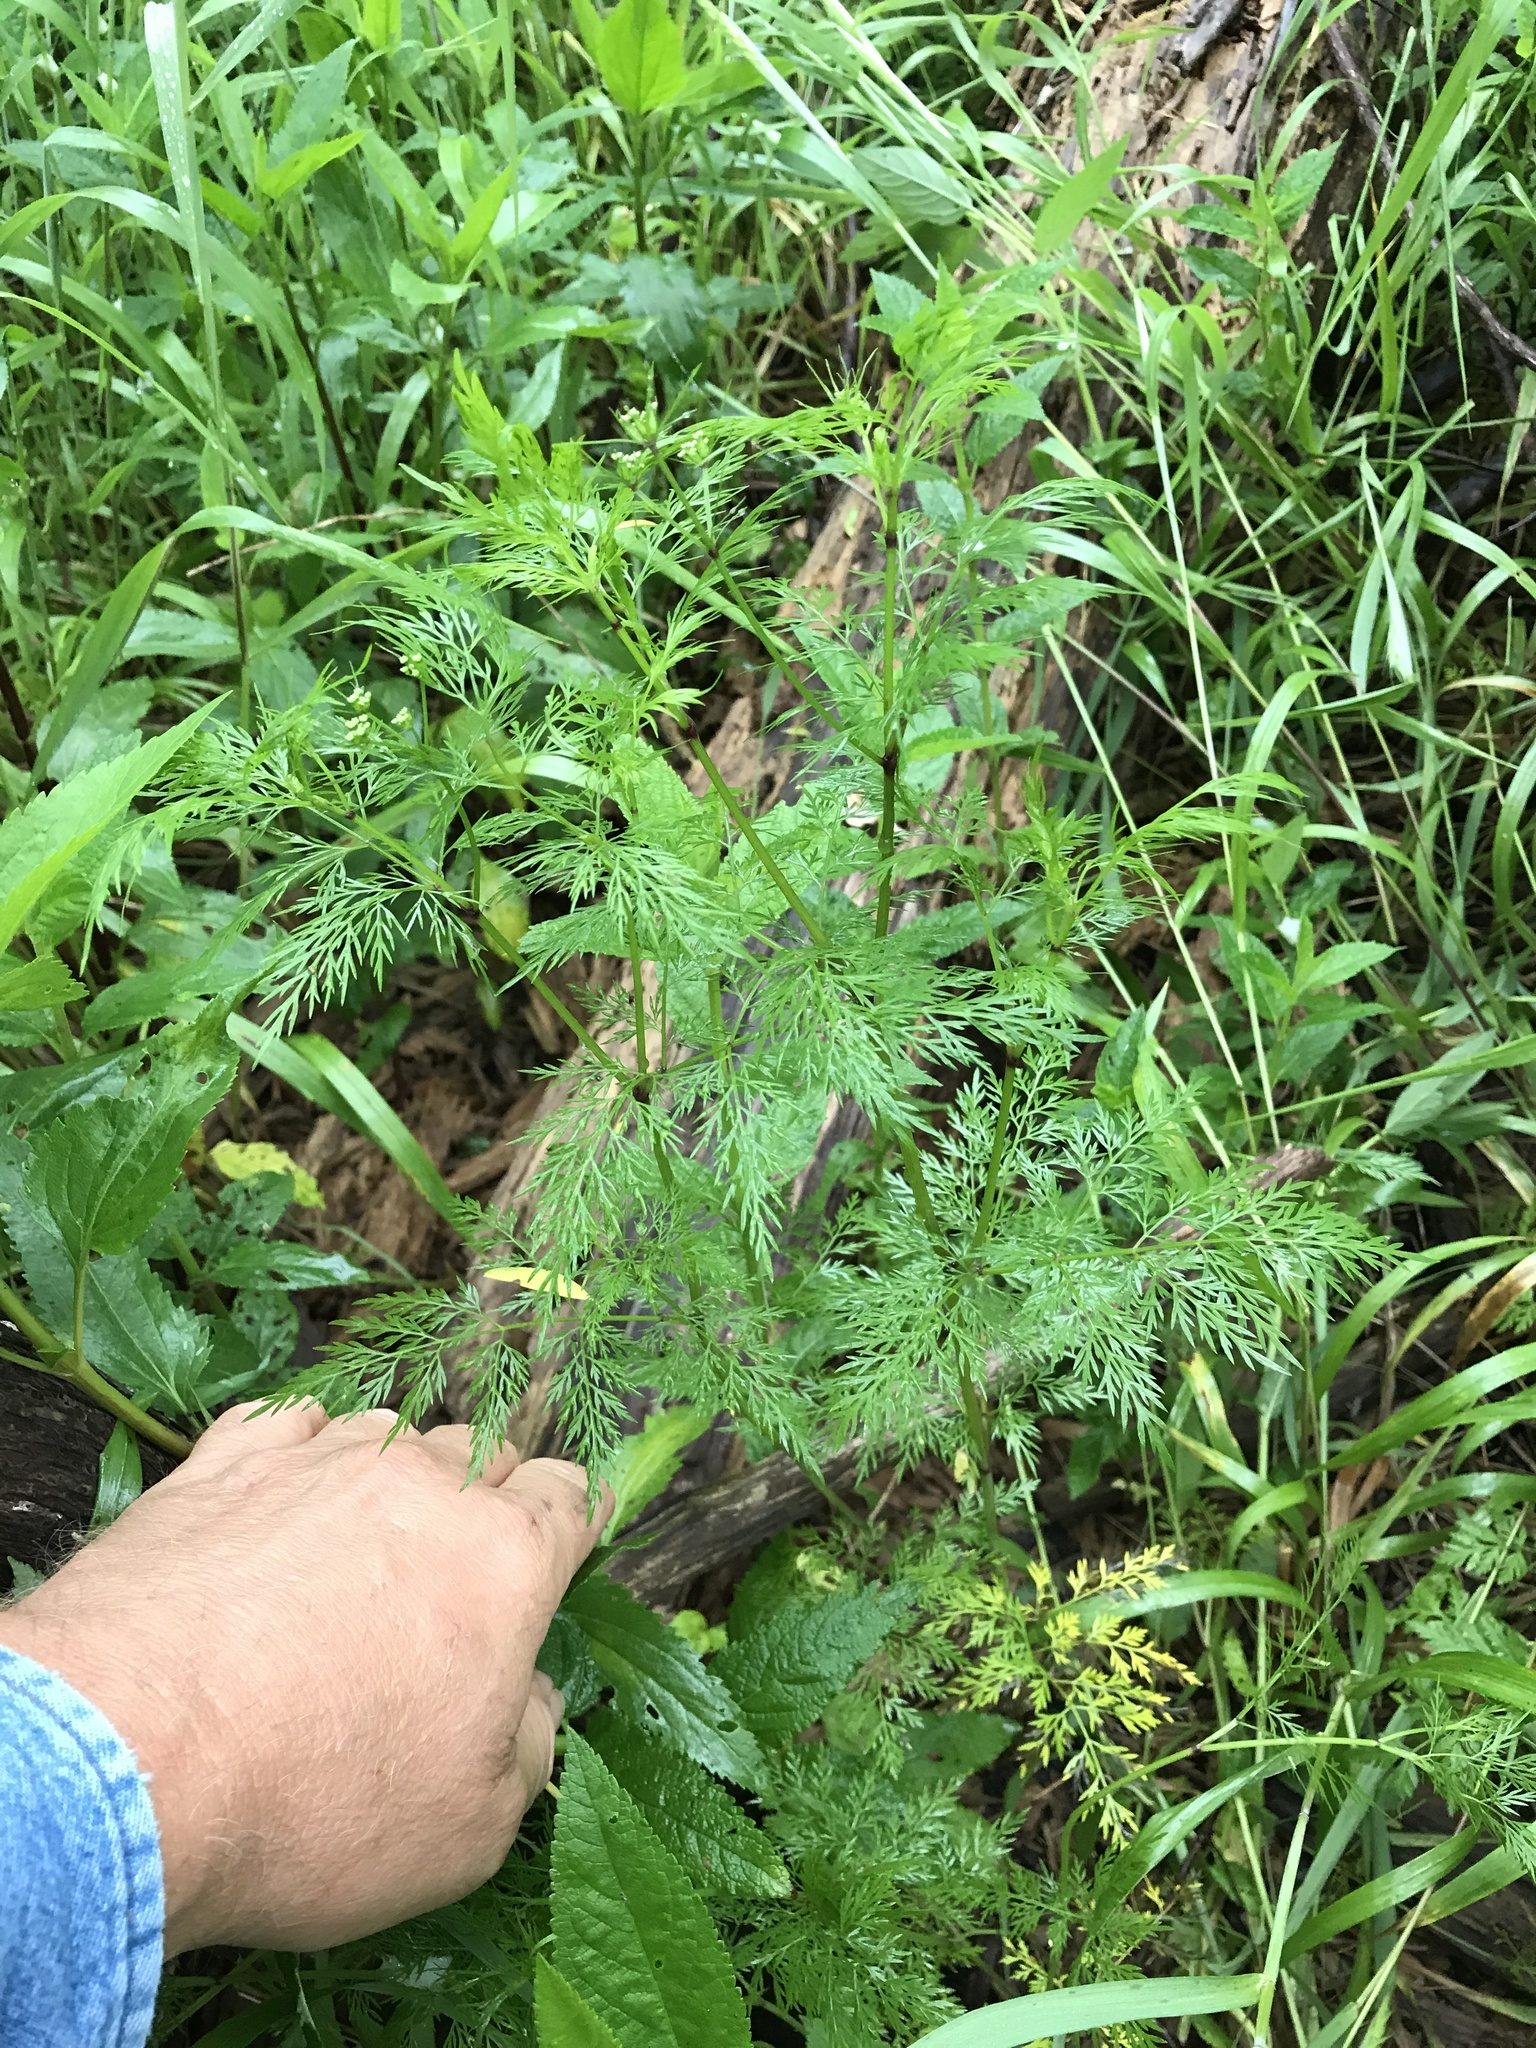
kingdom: Plantae
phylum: Tracheophyta
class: Magnoliopsida
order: Apiales
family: Apiaceae
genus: Trepocarpus
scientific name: Trepocarpus aethusae
